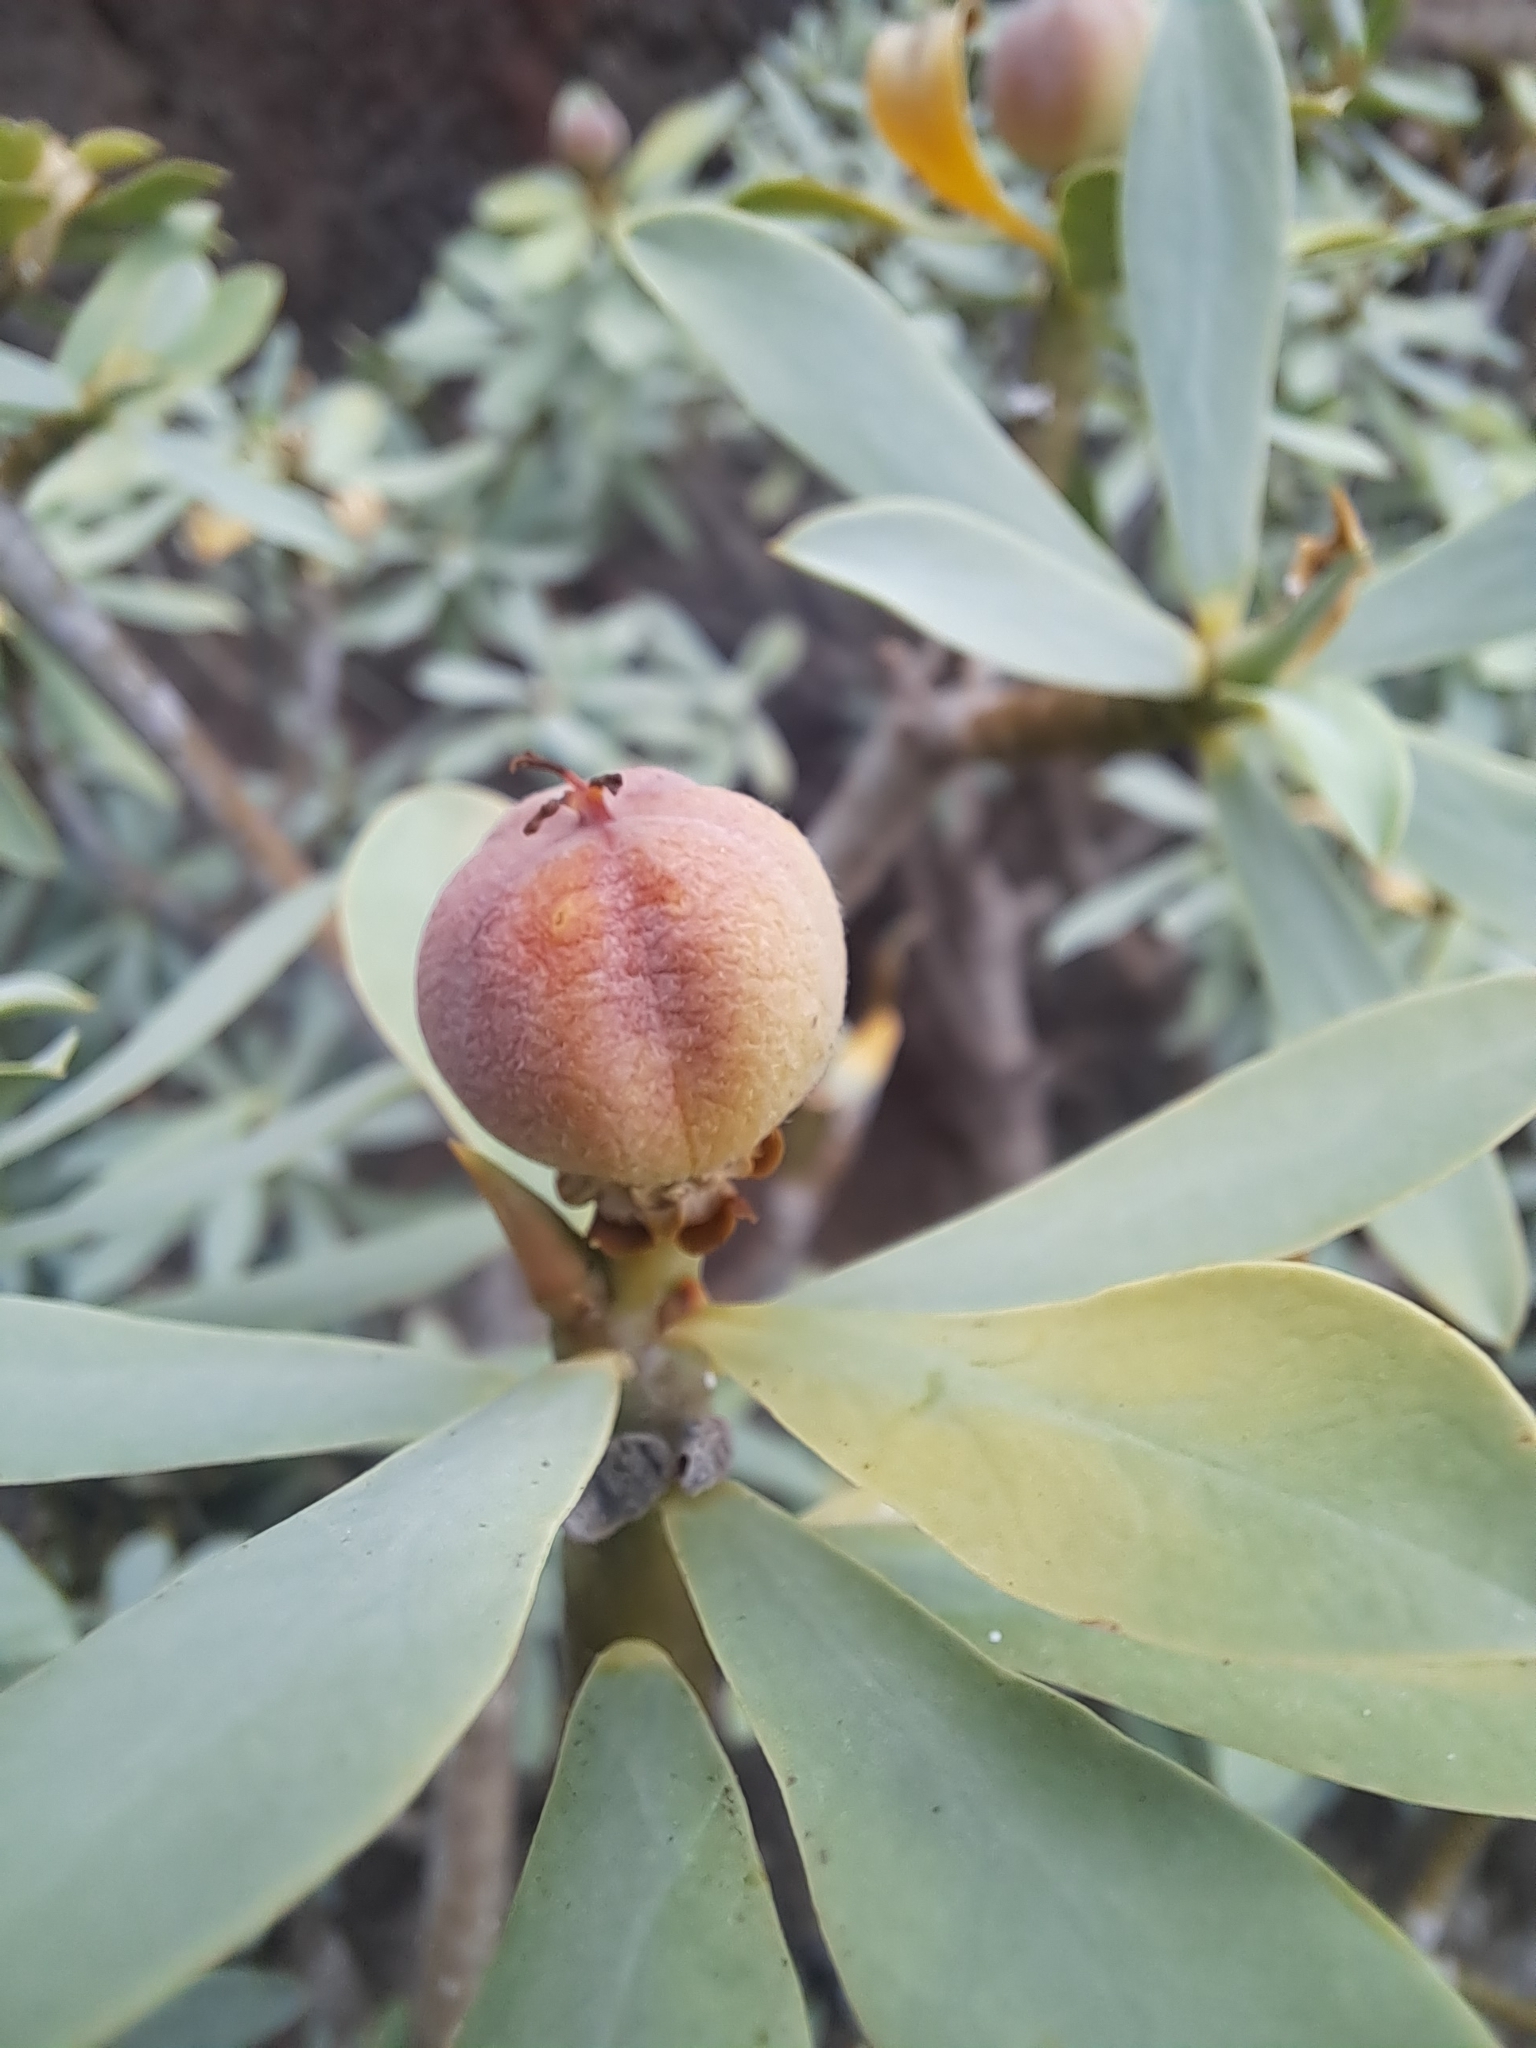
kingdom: Plantae
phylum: Tracheophyta
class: Magnoliopsida
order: Malpighiales
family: Euphorbiaceae
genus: Euphorbia
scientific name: Euphorbia balsamifera
